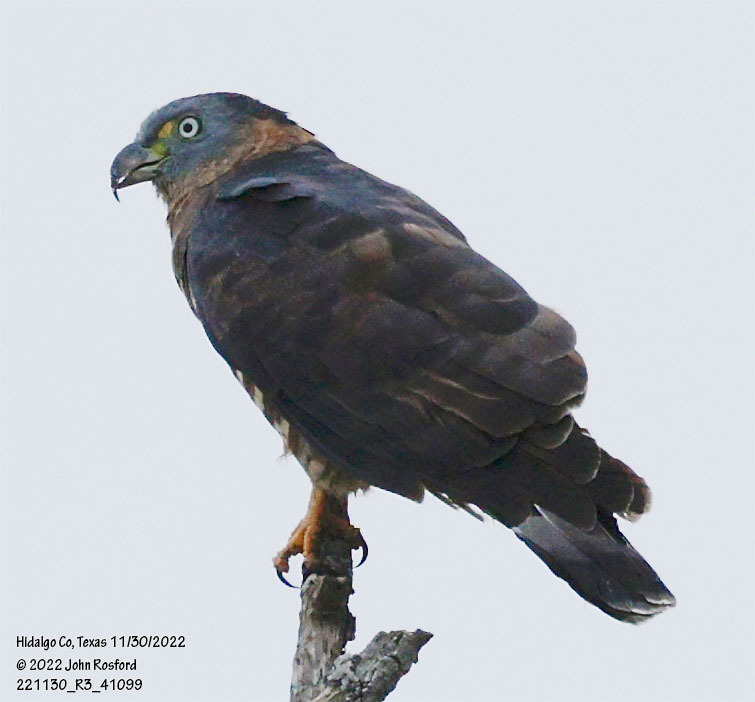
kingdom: Animalia
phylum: Chordata
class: Aves
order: Accipitriformes
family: Accipitridae
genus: Chondrohierax
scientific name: Chondrohierax uncinatus
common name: Hook-billed kite
